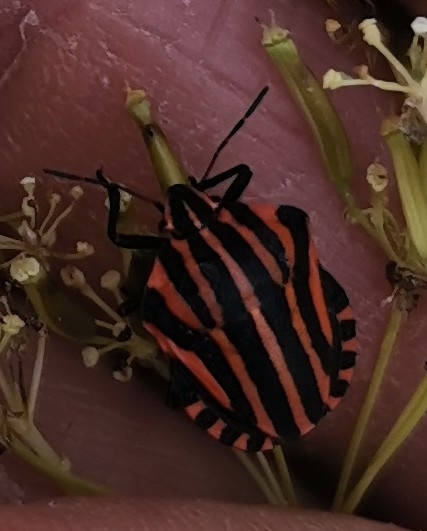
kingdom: Animalia
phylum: Arthropoda
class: Insecta
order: Hemiptera
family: Pentatomidae
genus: Graphosoma
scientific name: Graphosoma italicum
